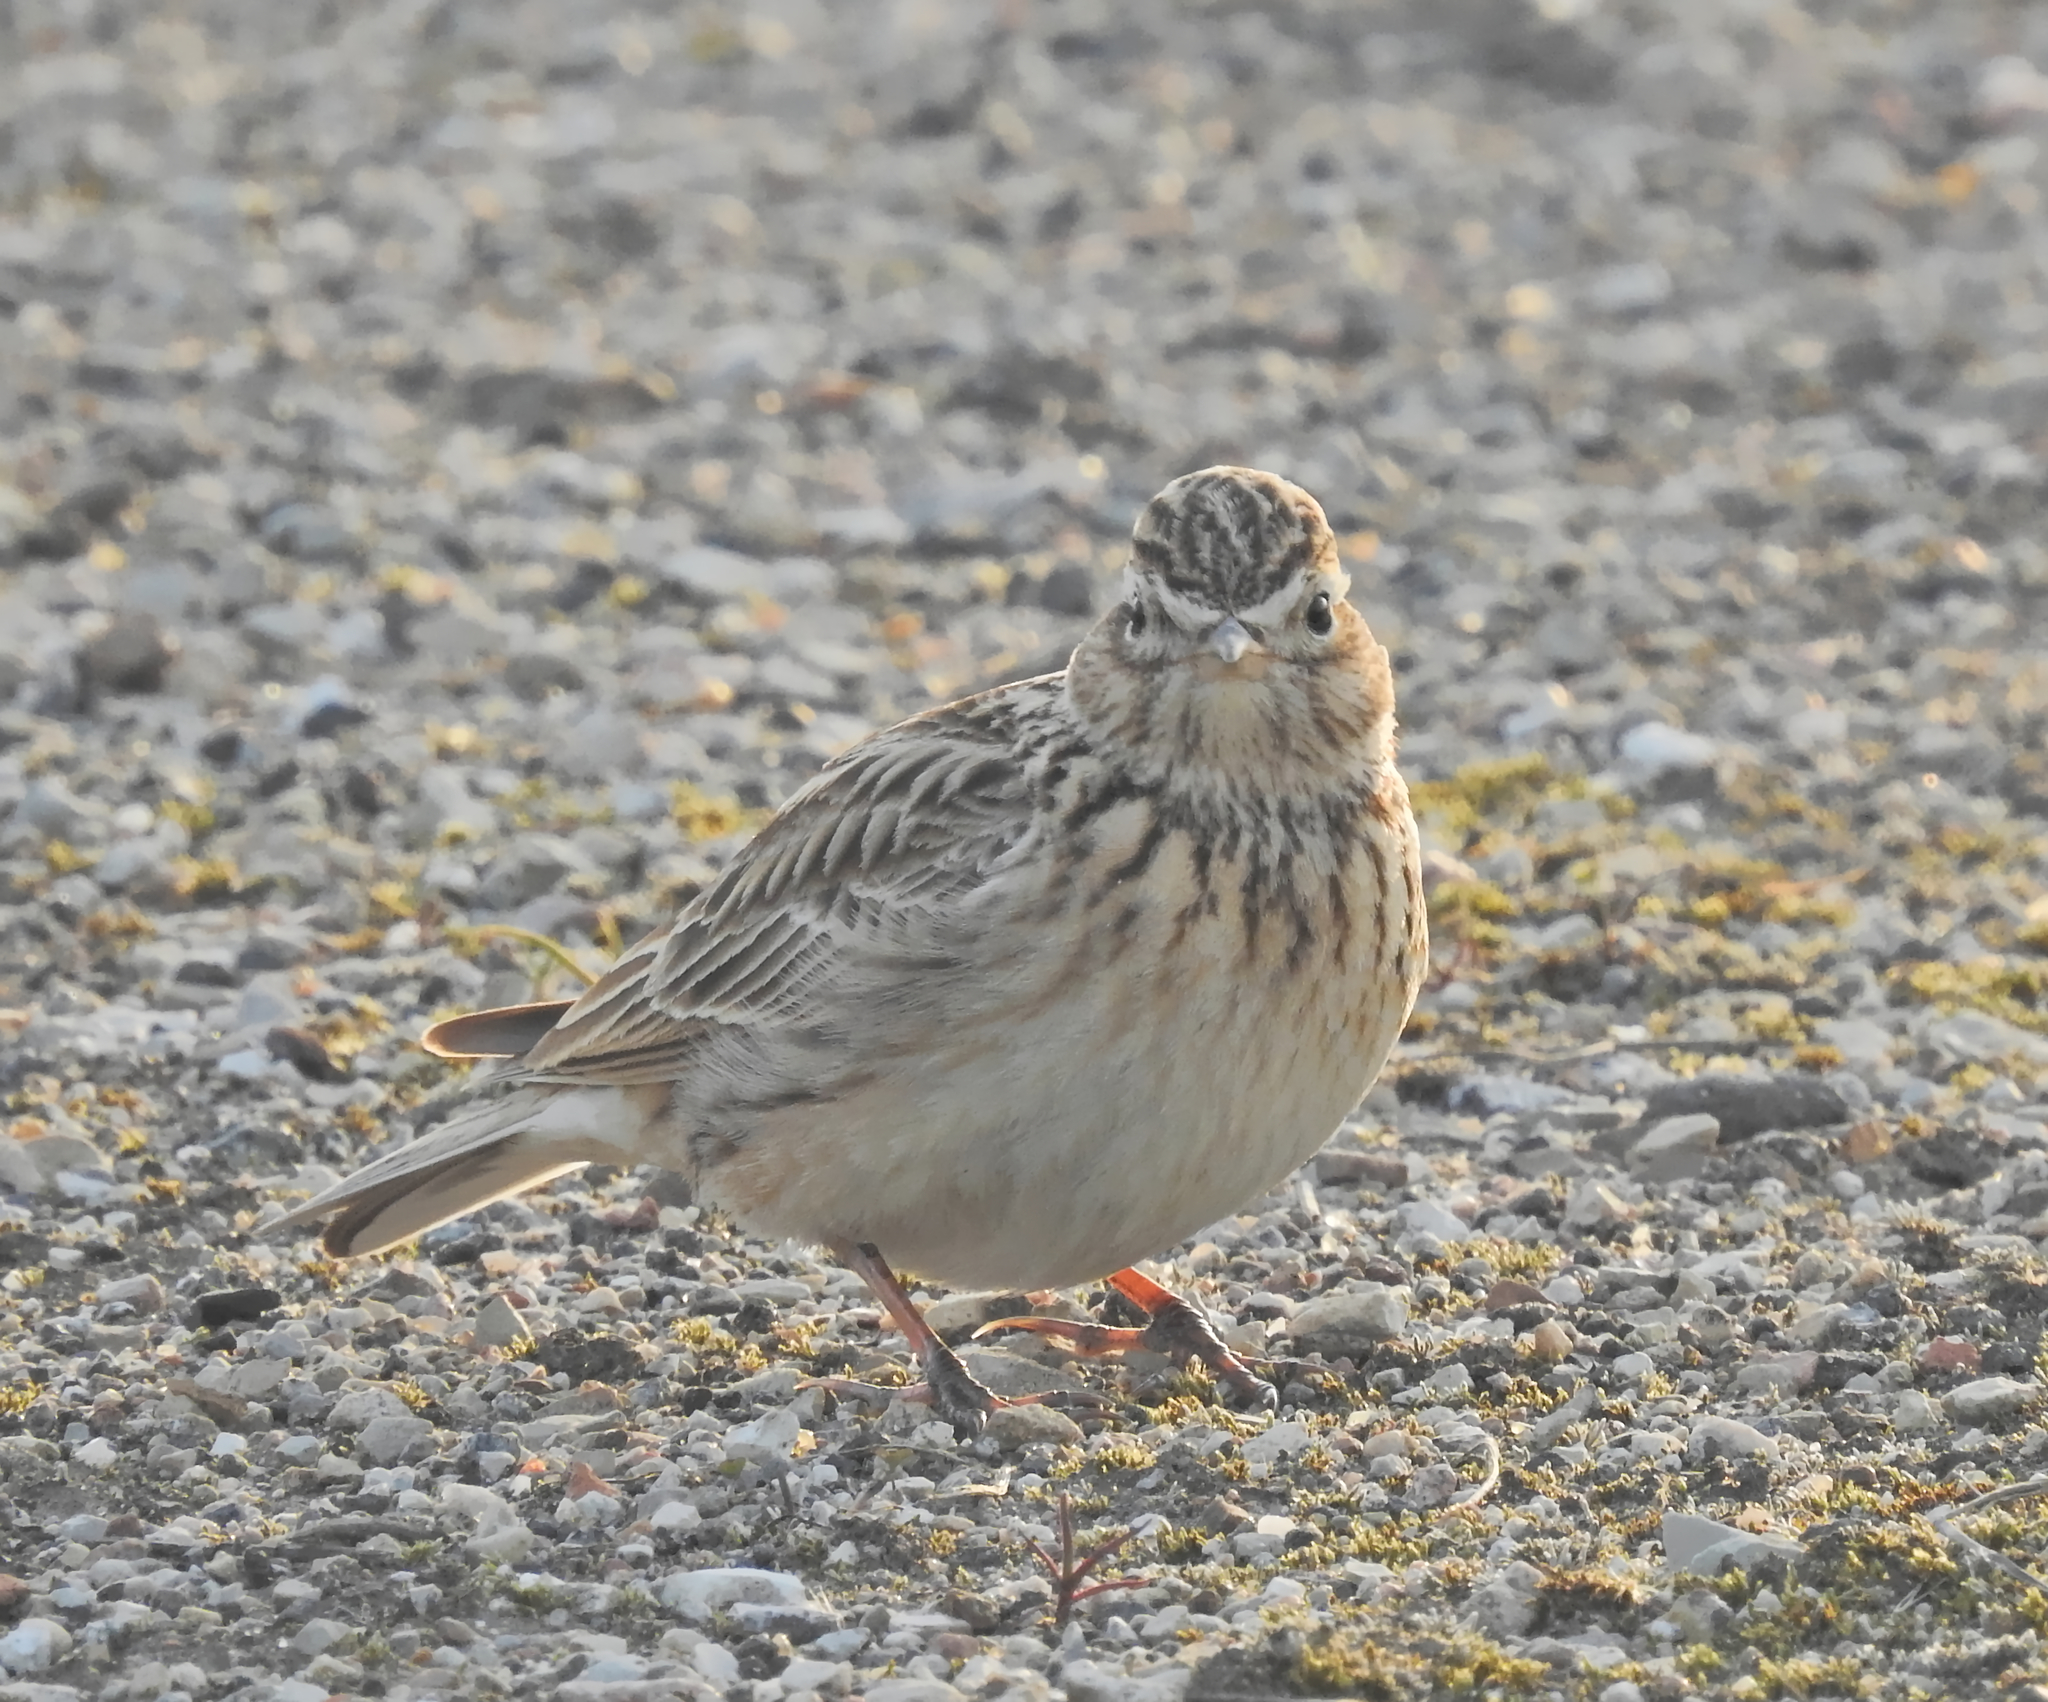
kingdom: Animalia
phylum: Chordata
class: Aves
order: Passeriformes
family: Alaudidae
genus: Alauda
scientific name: Alauda arvensis
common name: Eurasian skylark
